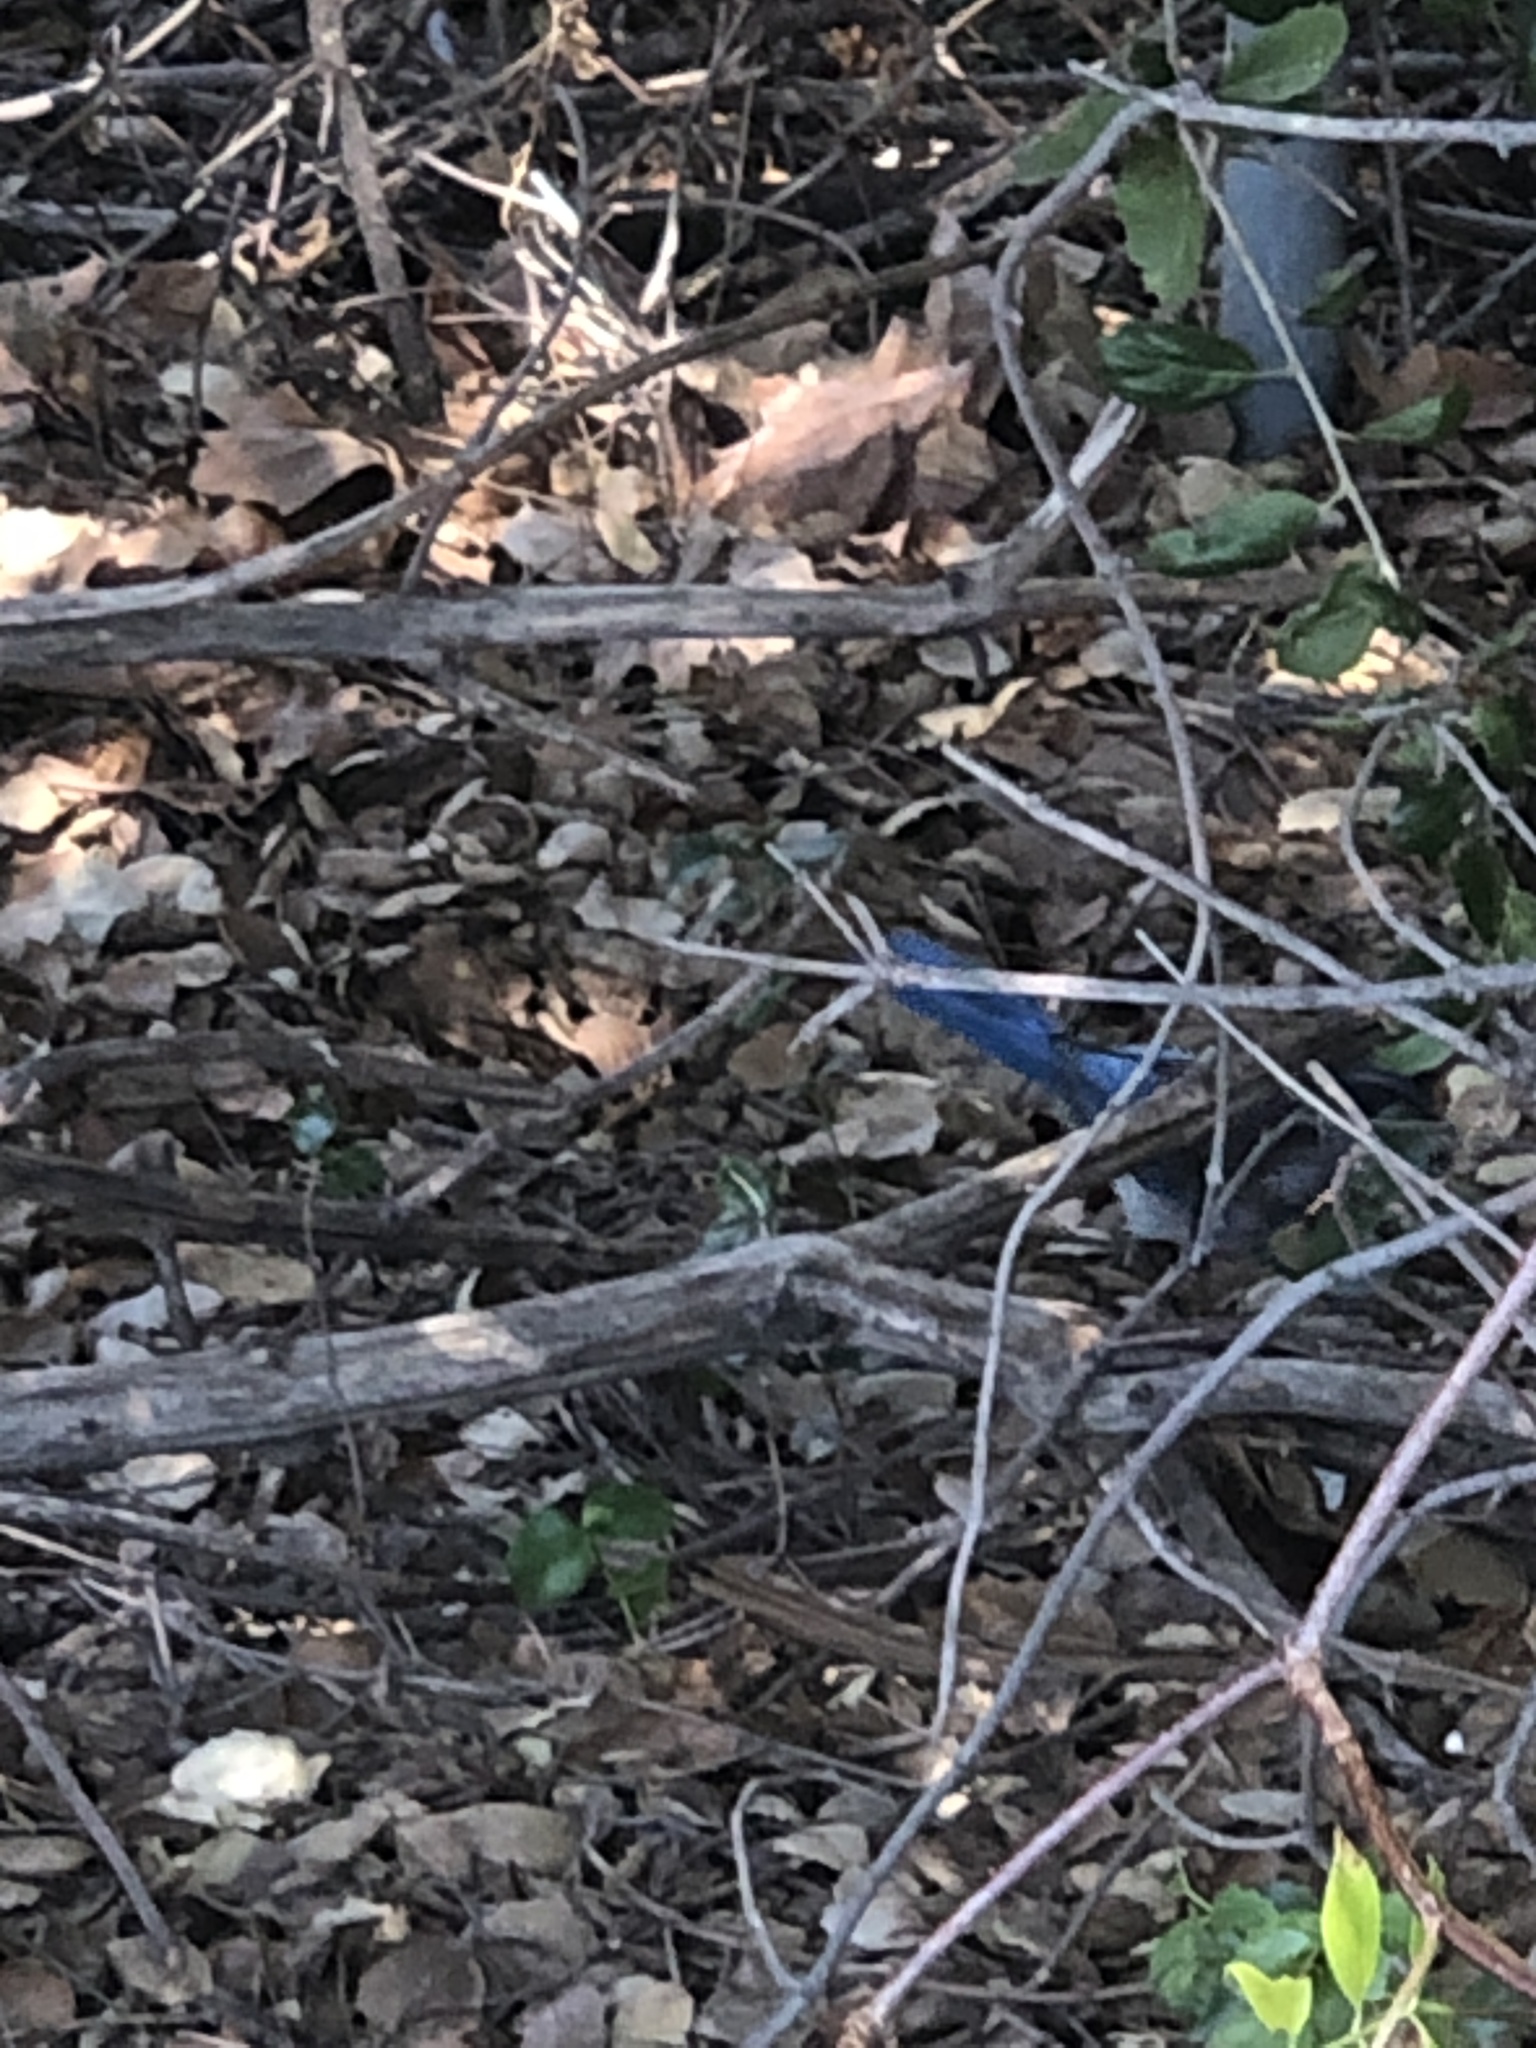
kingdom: Animalia
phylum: Chordata
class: Aves
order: Passeriformes
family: Corvidae
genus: Aphelocoma
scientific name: Aphelocoma californica
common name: California scrub-jay
